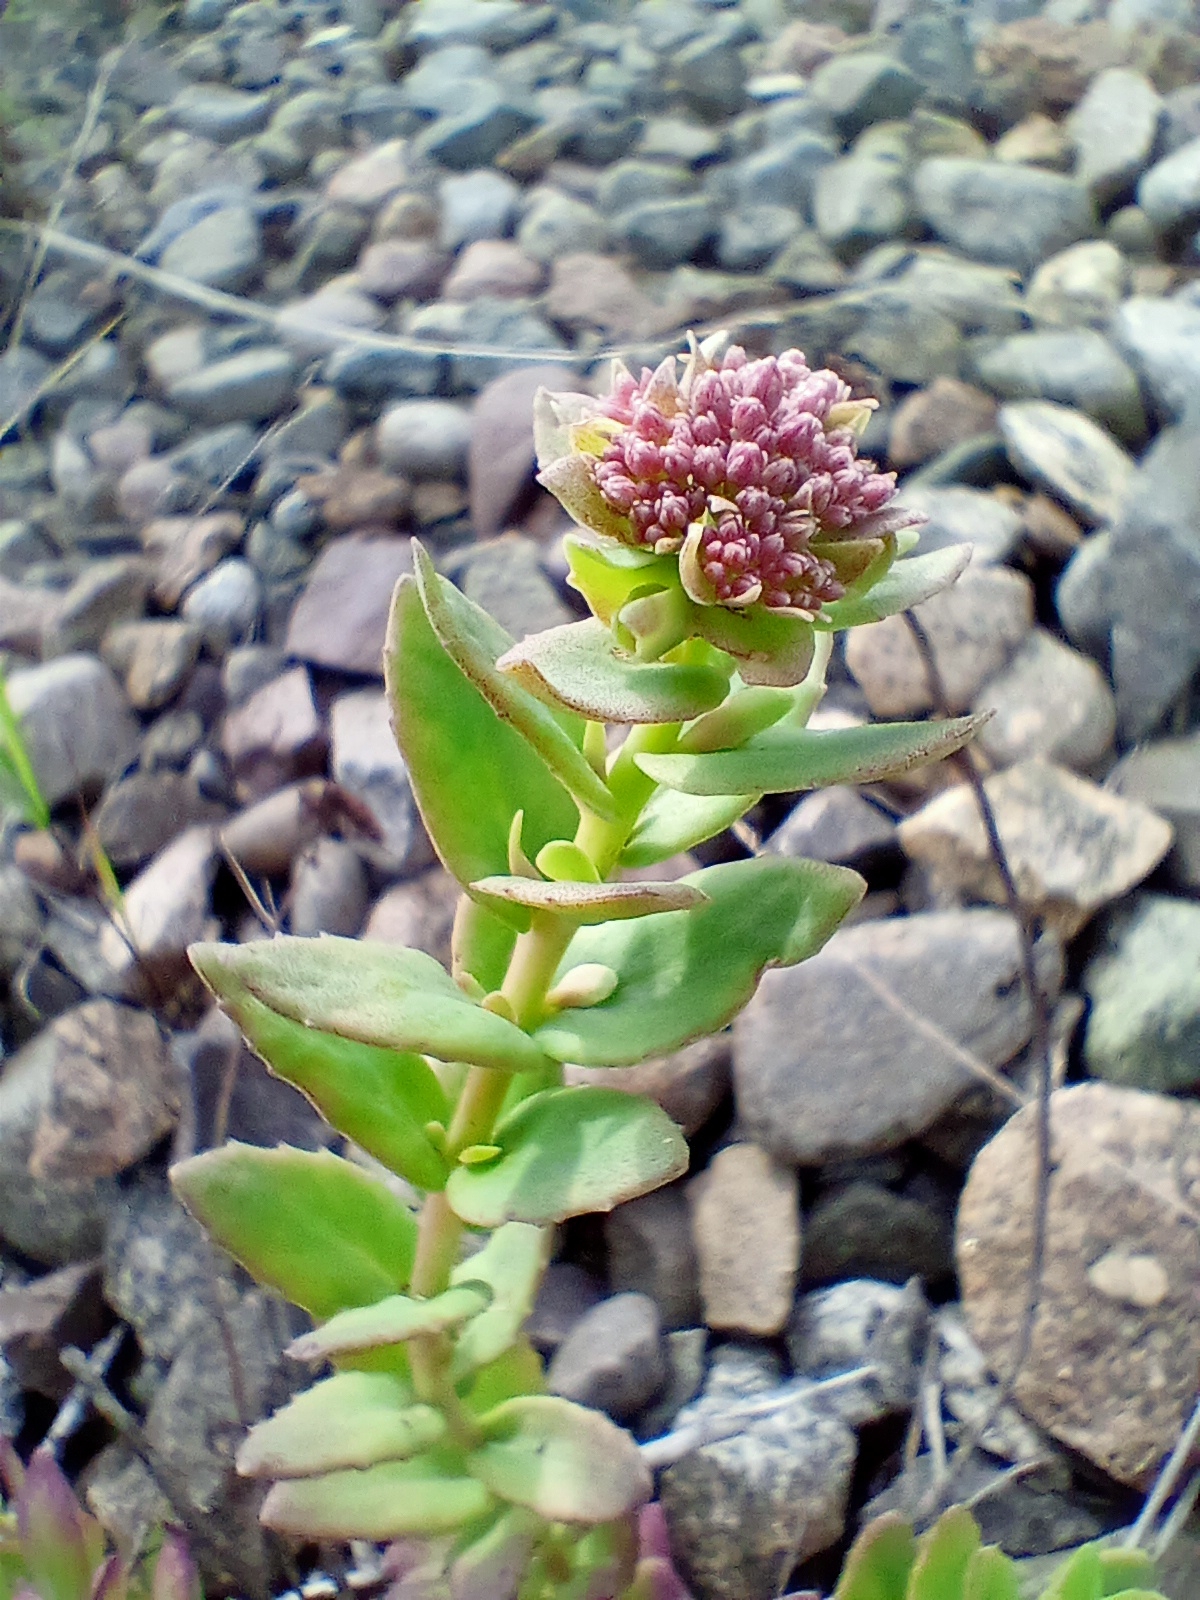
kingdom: Plantae
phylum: Tracheophyta
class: Magnoliopsida
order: Saxifragales
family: Crassulaceae
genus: Hylotelephium
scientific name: Hylotelephium telephium
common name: Live-forever
